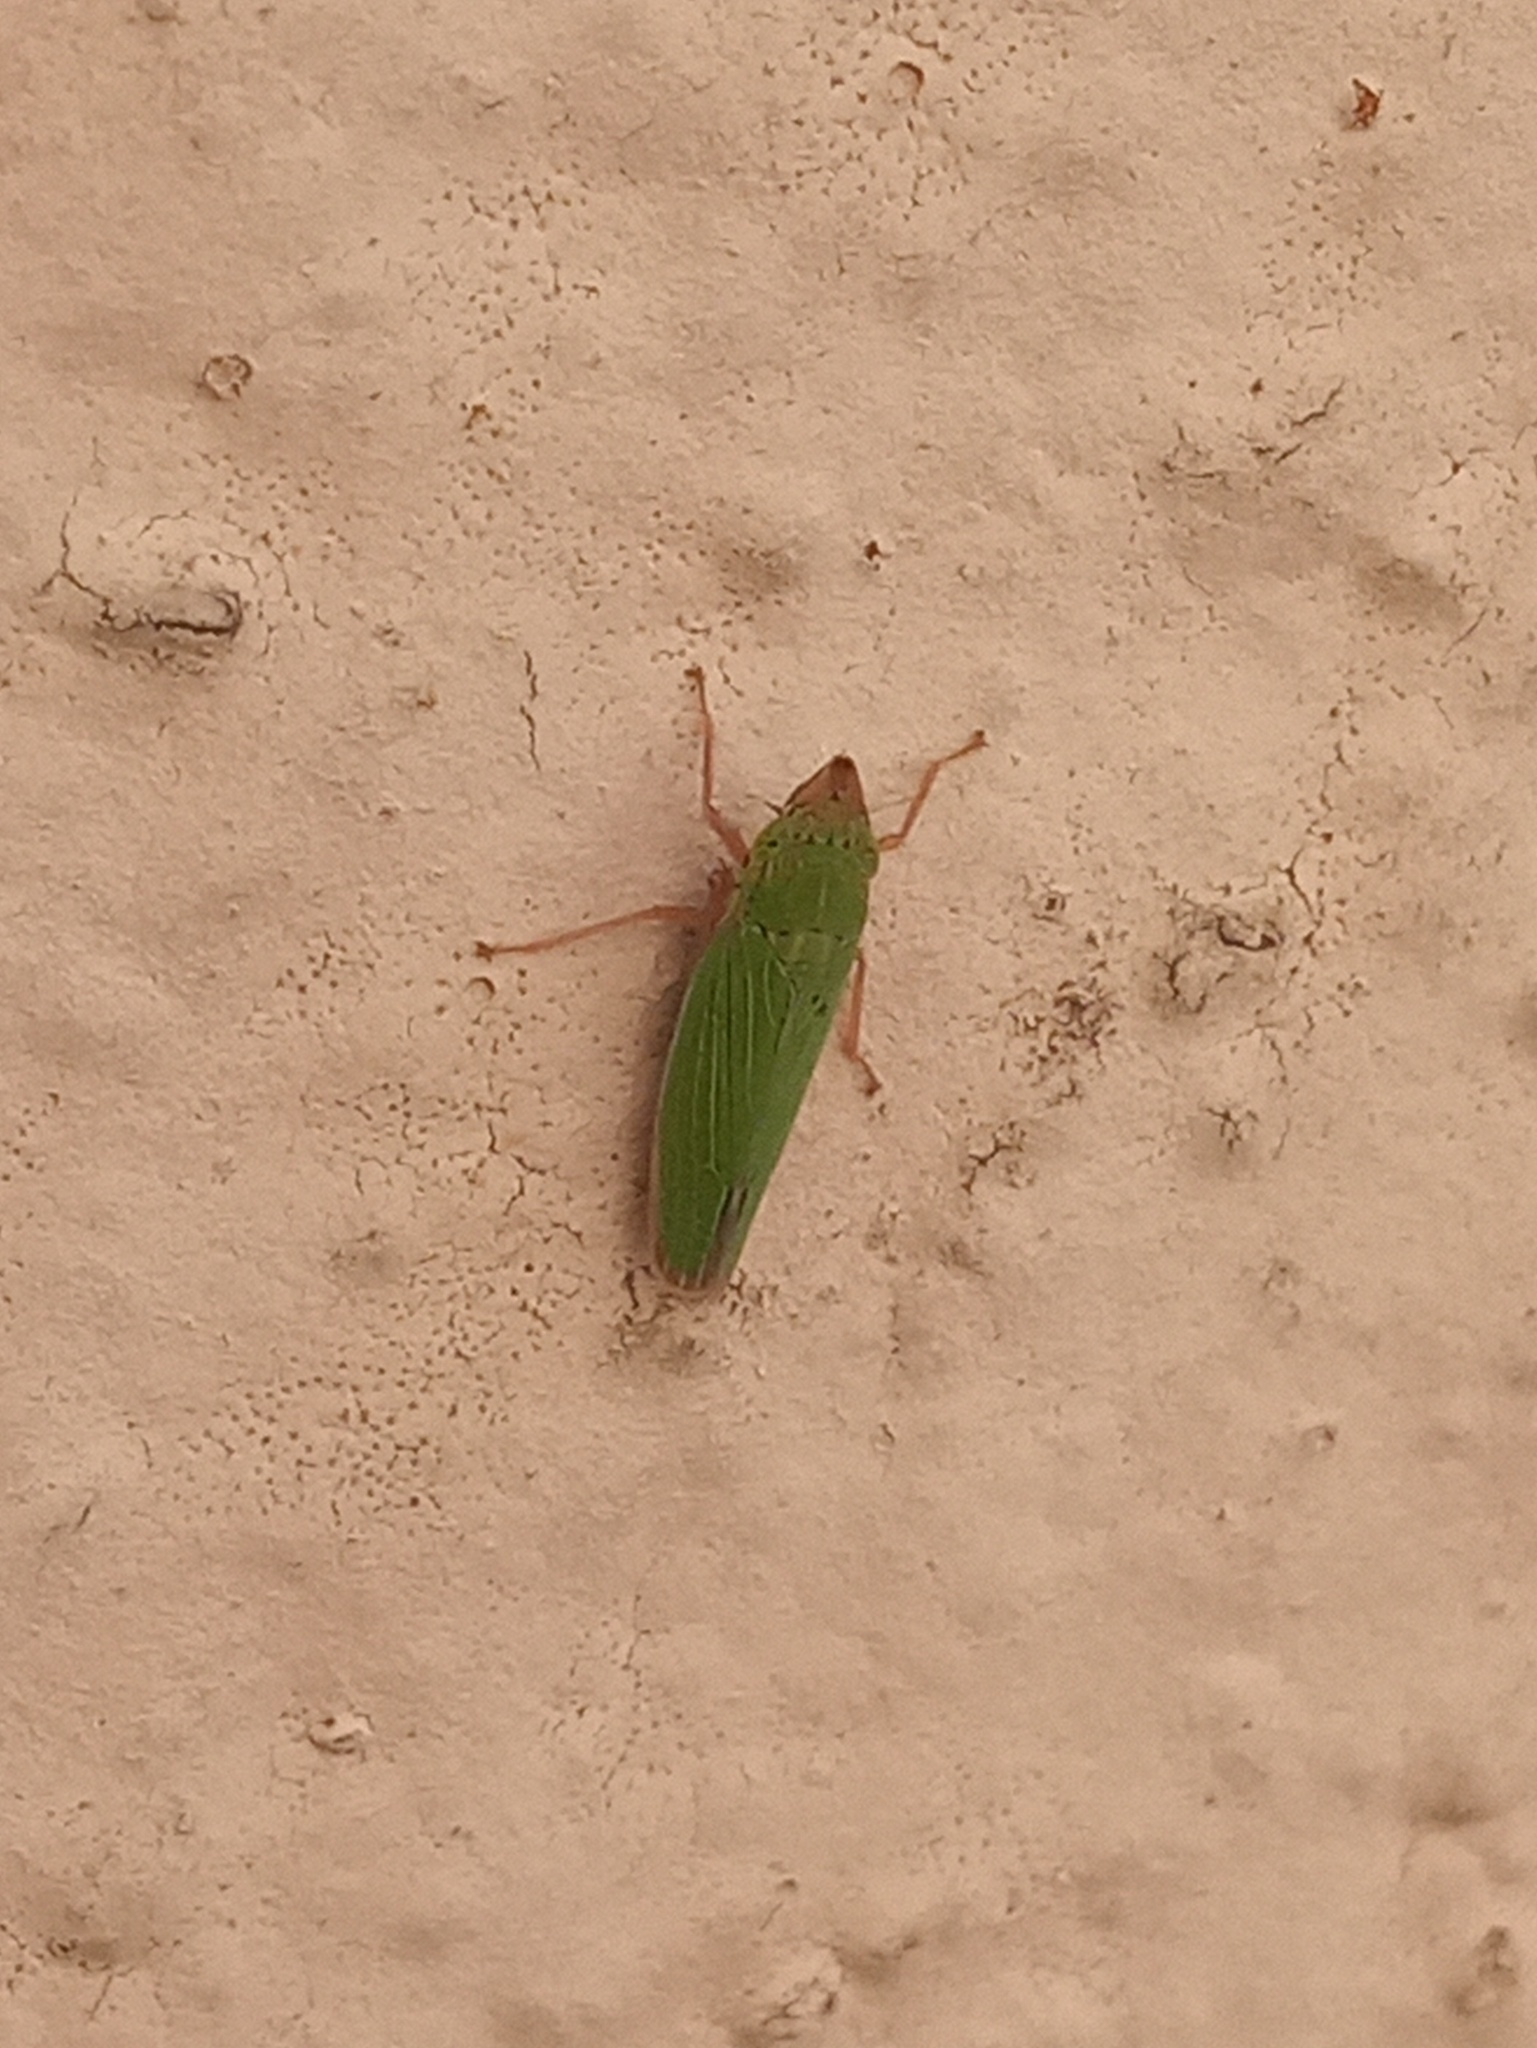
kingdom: Animalia
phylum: Arthropoda
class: Insecta
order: Hemiptera
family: Cicadellidae
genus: Draeculacephala
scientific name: Draeculacephala soluta
